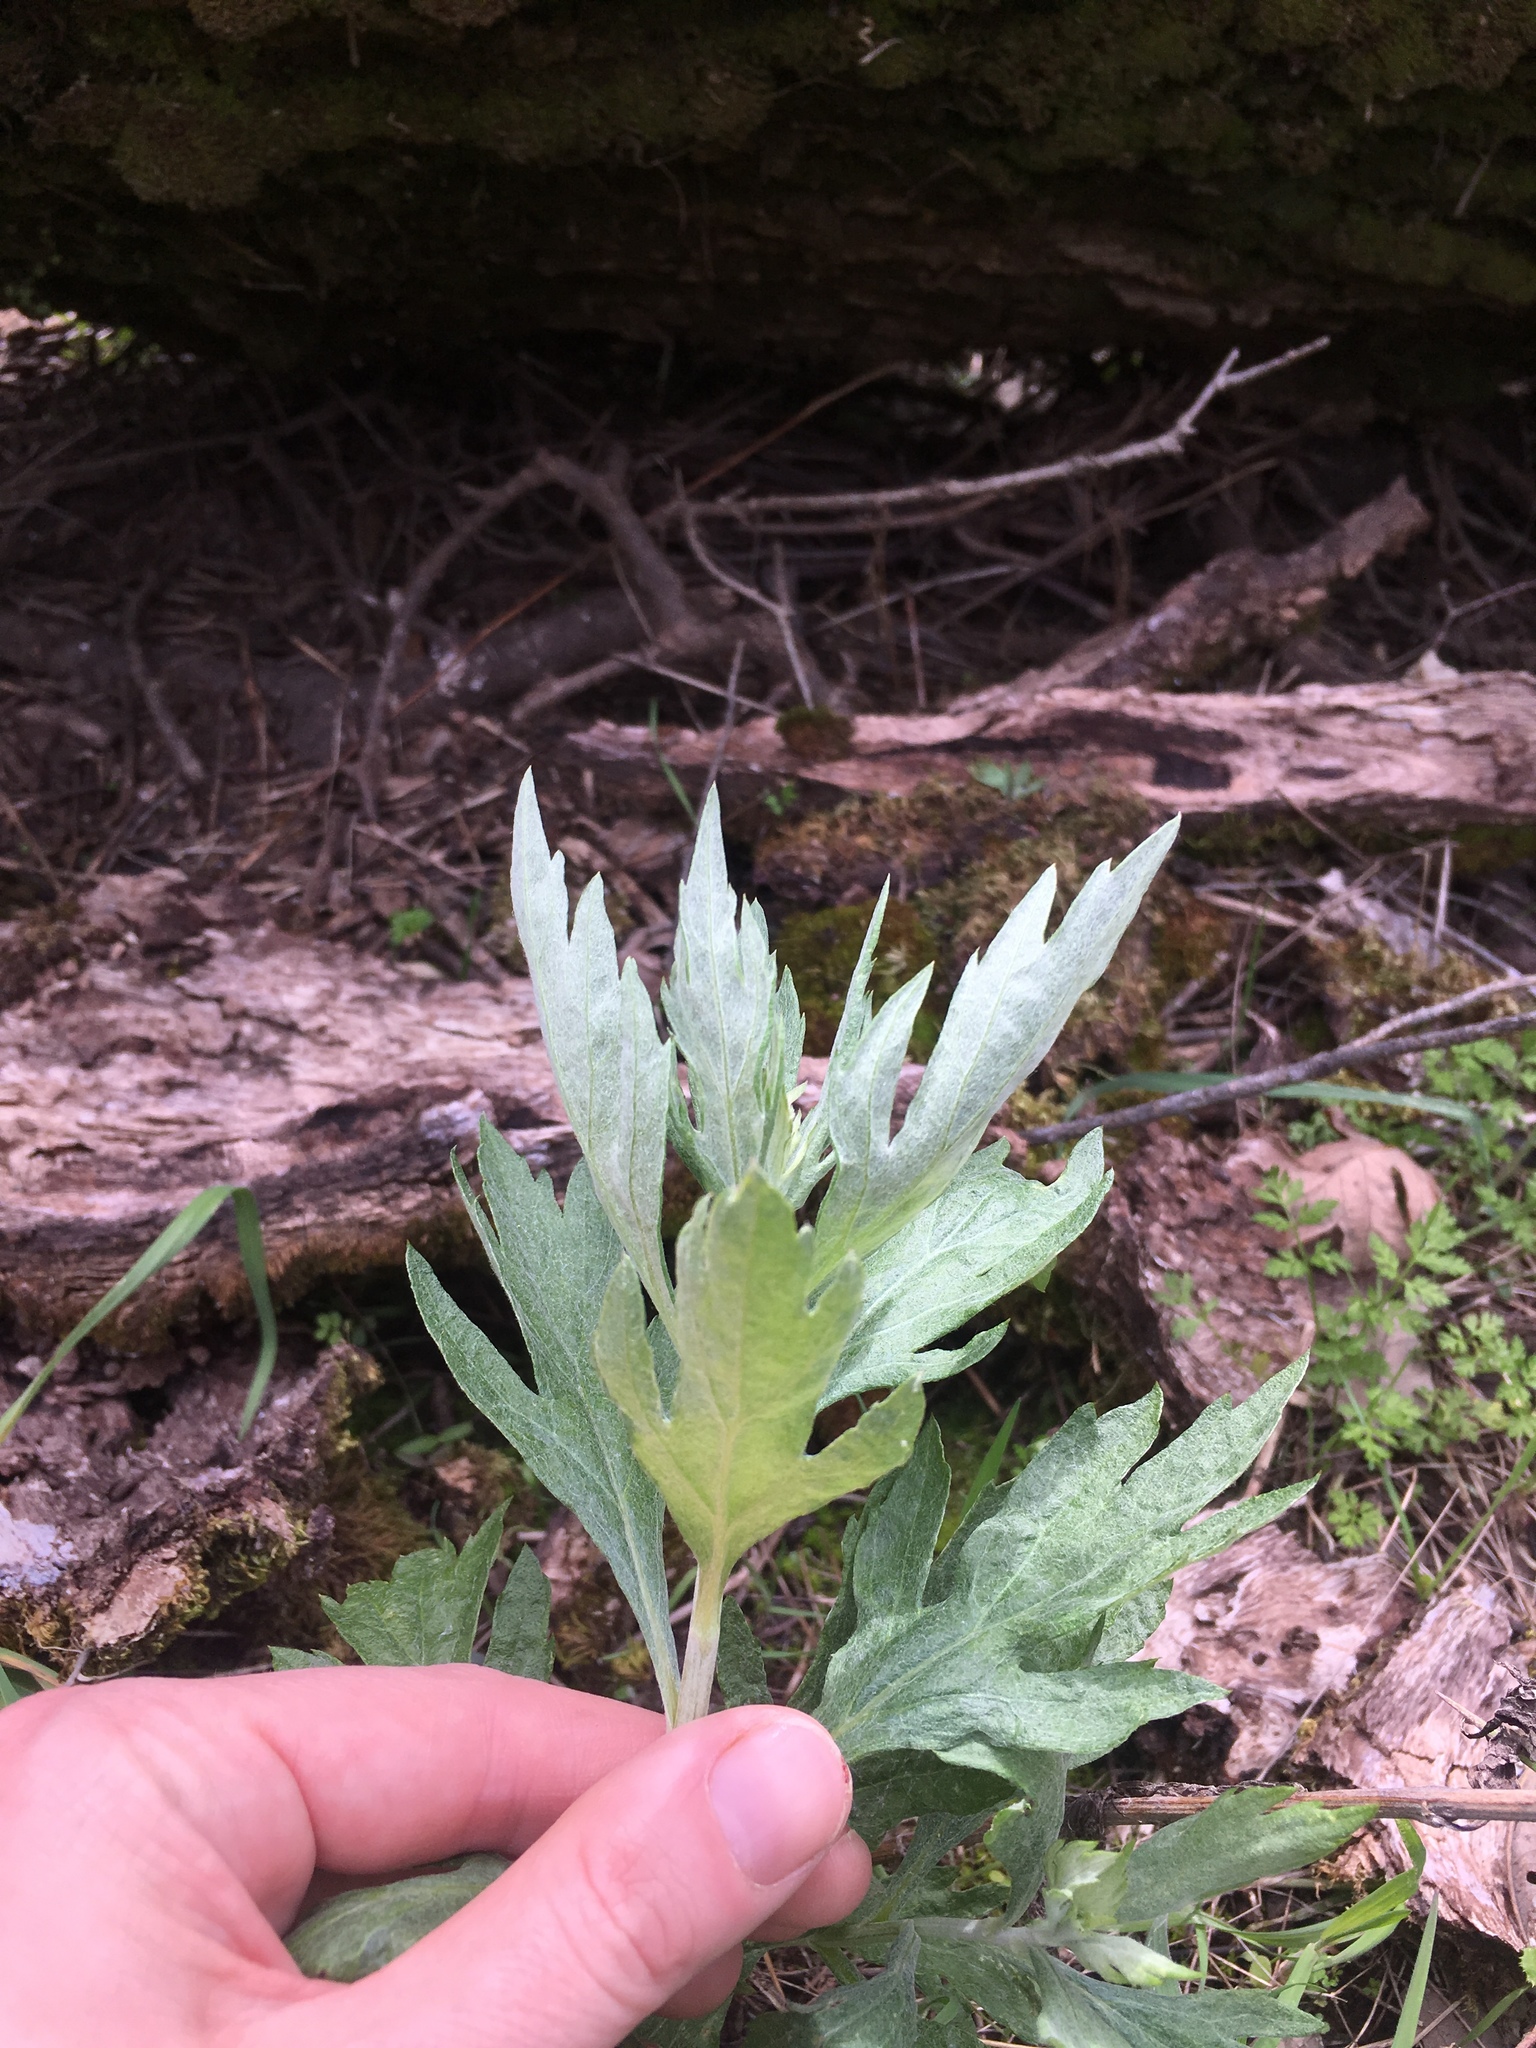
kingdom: Plantae
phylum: Tracheophyta
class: Magnoliopsida
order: Asterales
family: Asteraceae
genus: Artemisia
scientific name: Artemisia douglasiana
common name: Northwest mugwort
